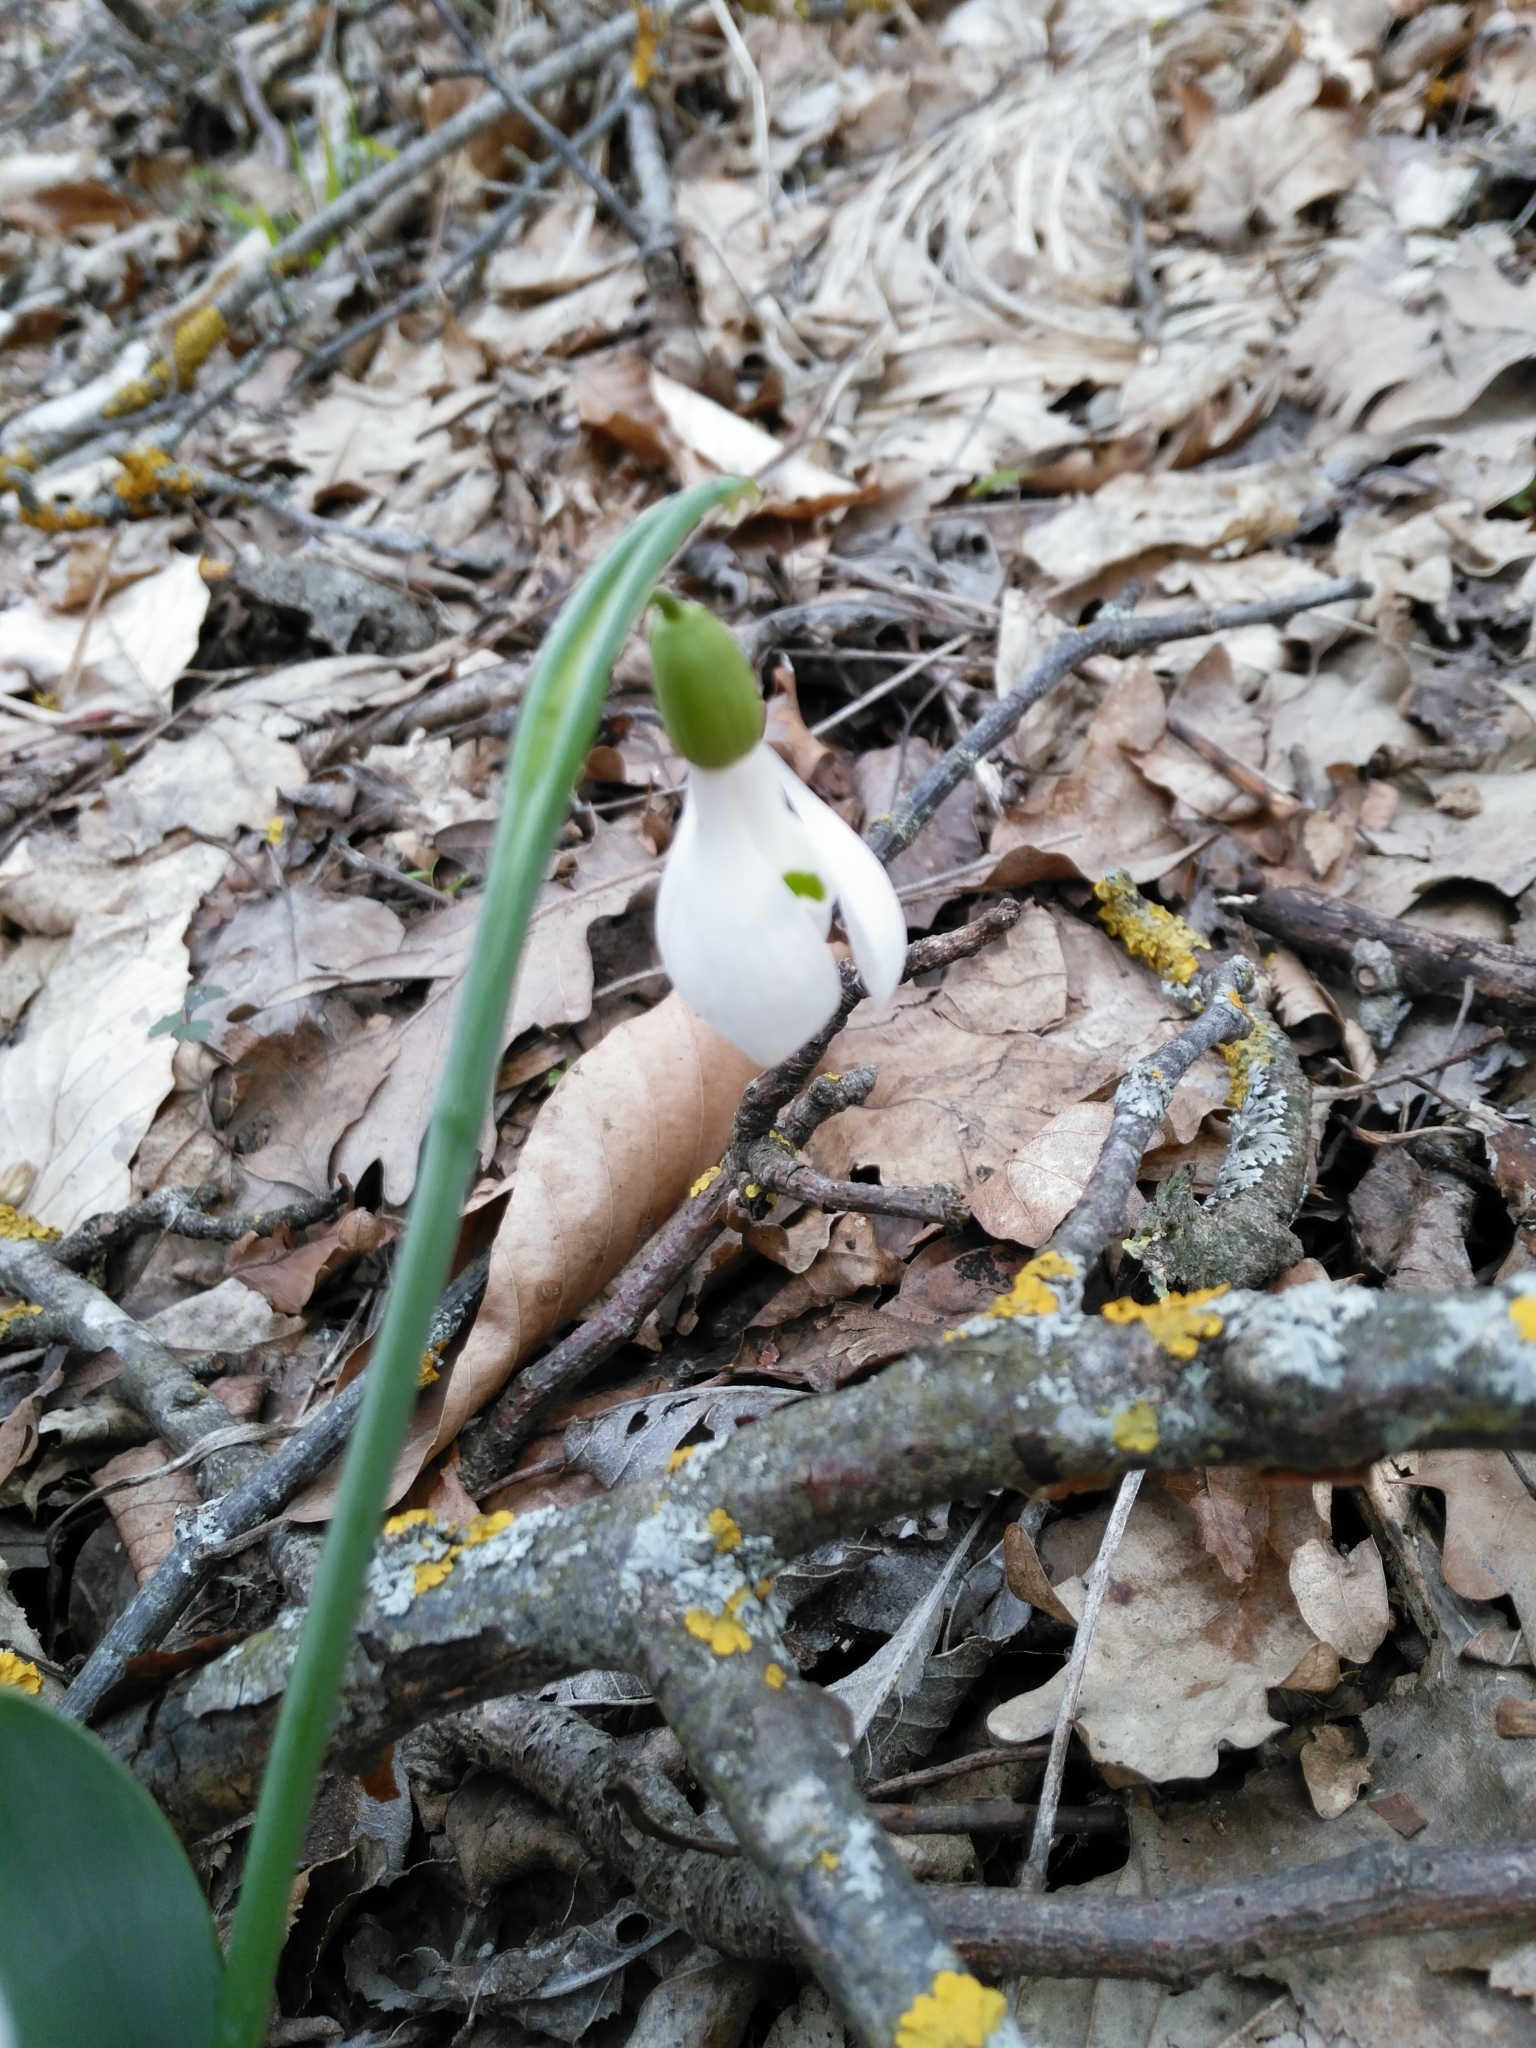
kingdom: Plantae
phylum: Tracheophyta
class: Liliopsida
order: Asparagales
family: Amaryllidaceae
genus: Galanthus
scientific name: Galanthus alpinus
